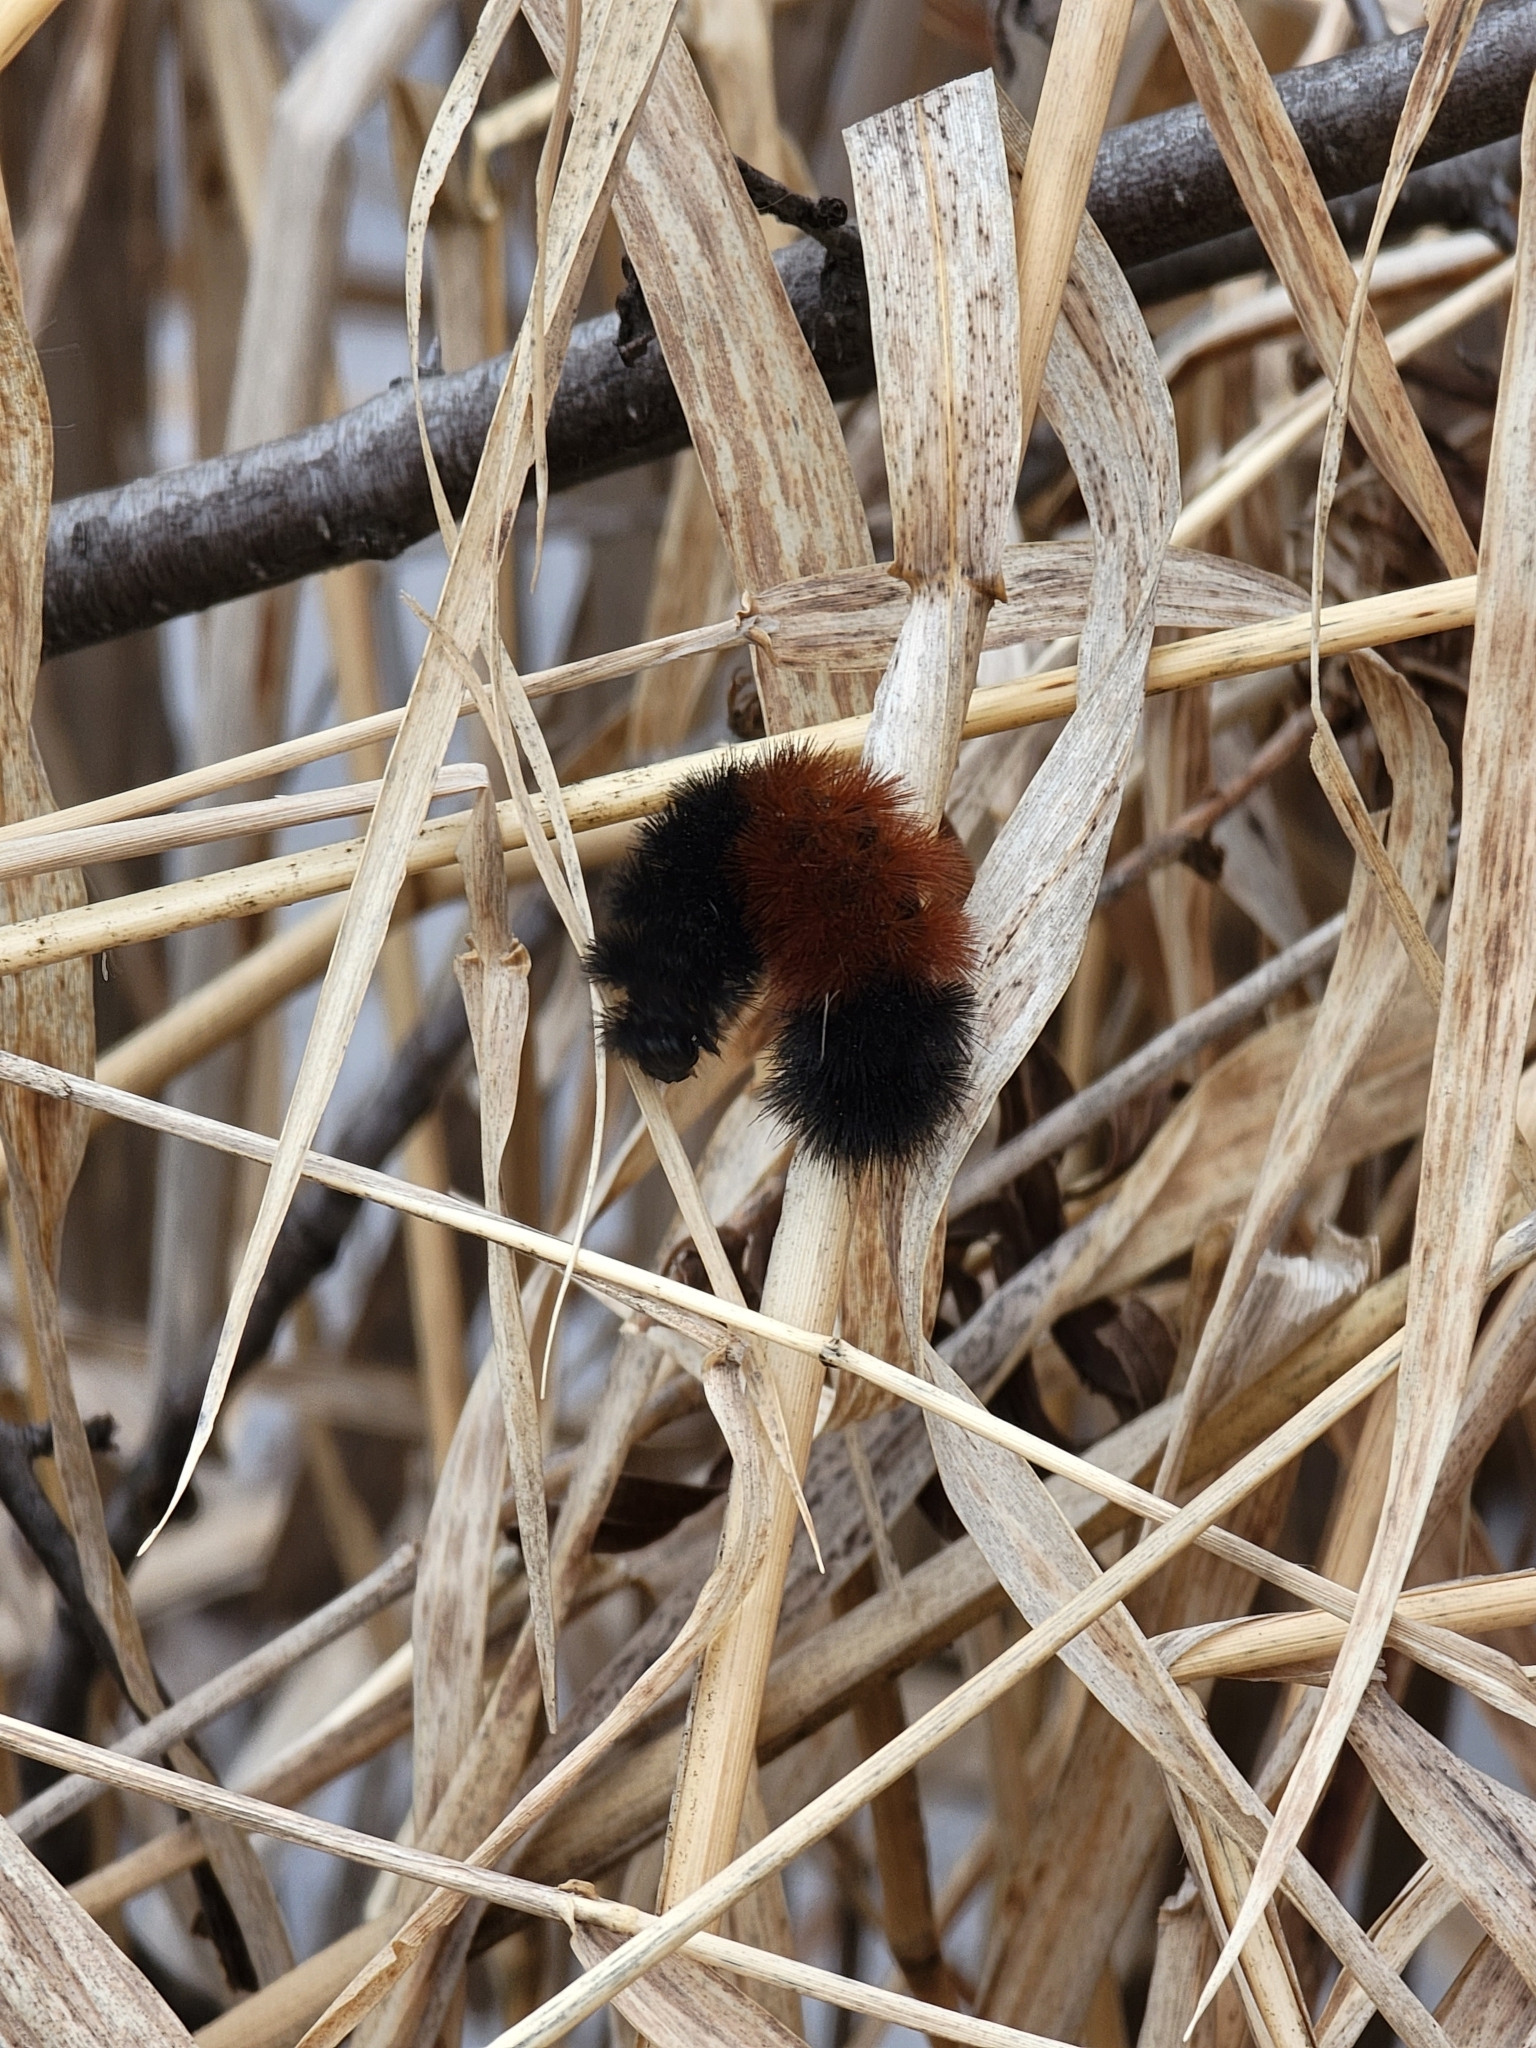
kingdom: Animalia
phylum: Arthropoda
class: Insecta
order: Lepidoptera
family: Erebidae
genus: Pyrrharctia
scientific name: Pyrrharctia isabella
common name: Isabella tiger moth
